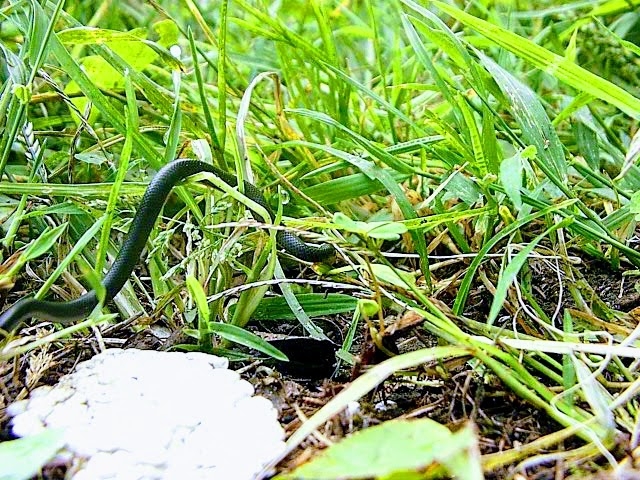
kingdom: Animalia
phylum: Chordata
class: Squamata
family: Colubridae
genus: Coluber
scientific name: Coluber constrictor
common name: Eastern racer
